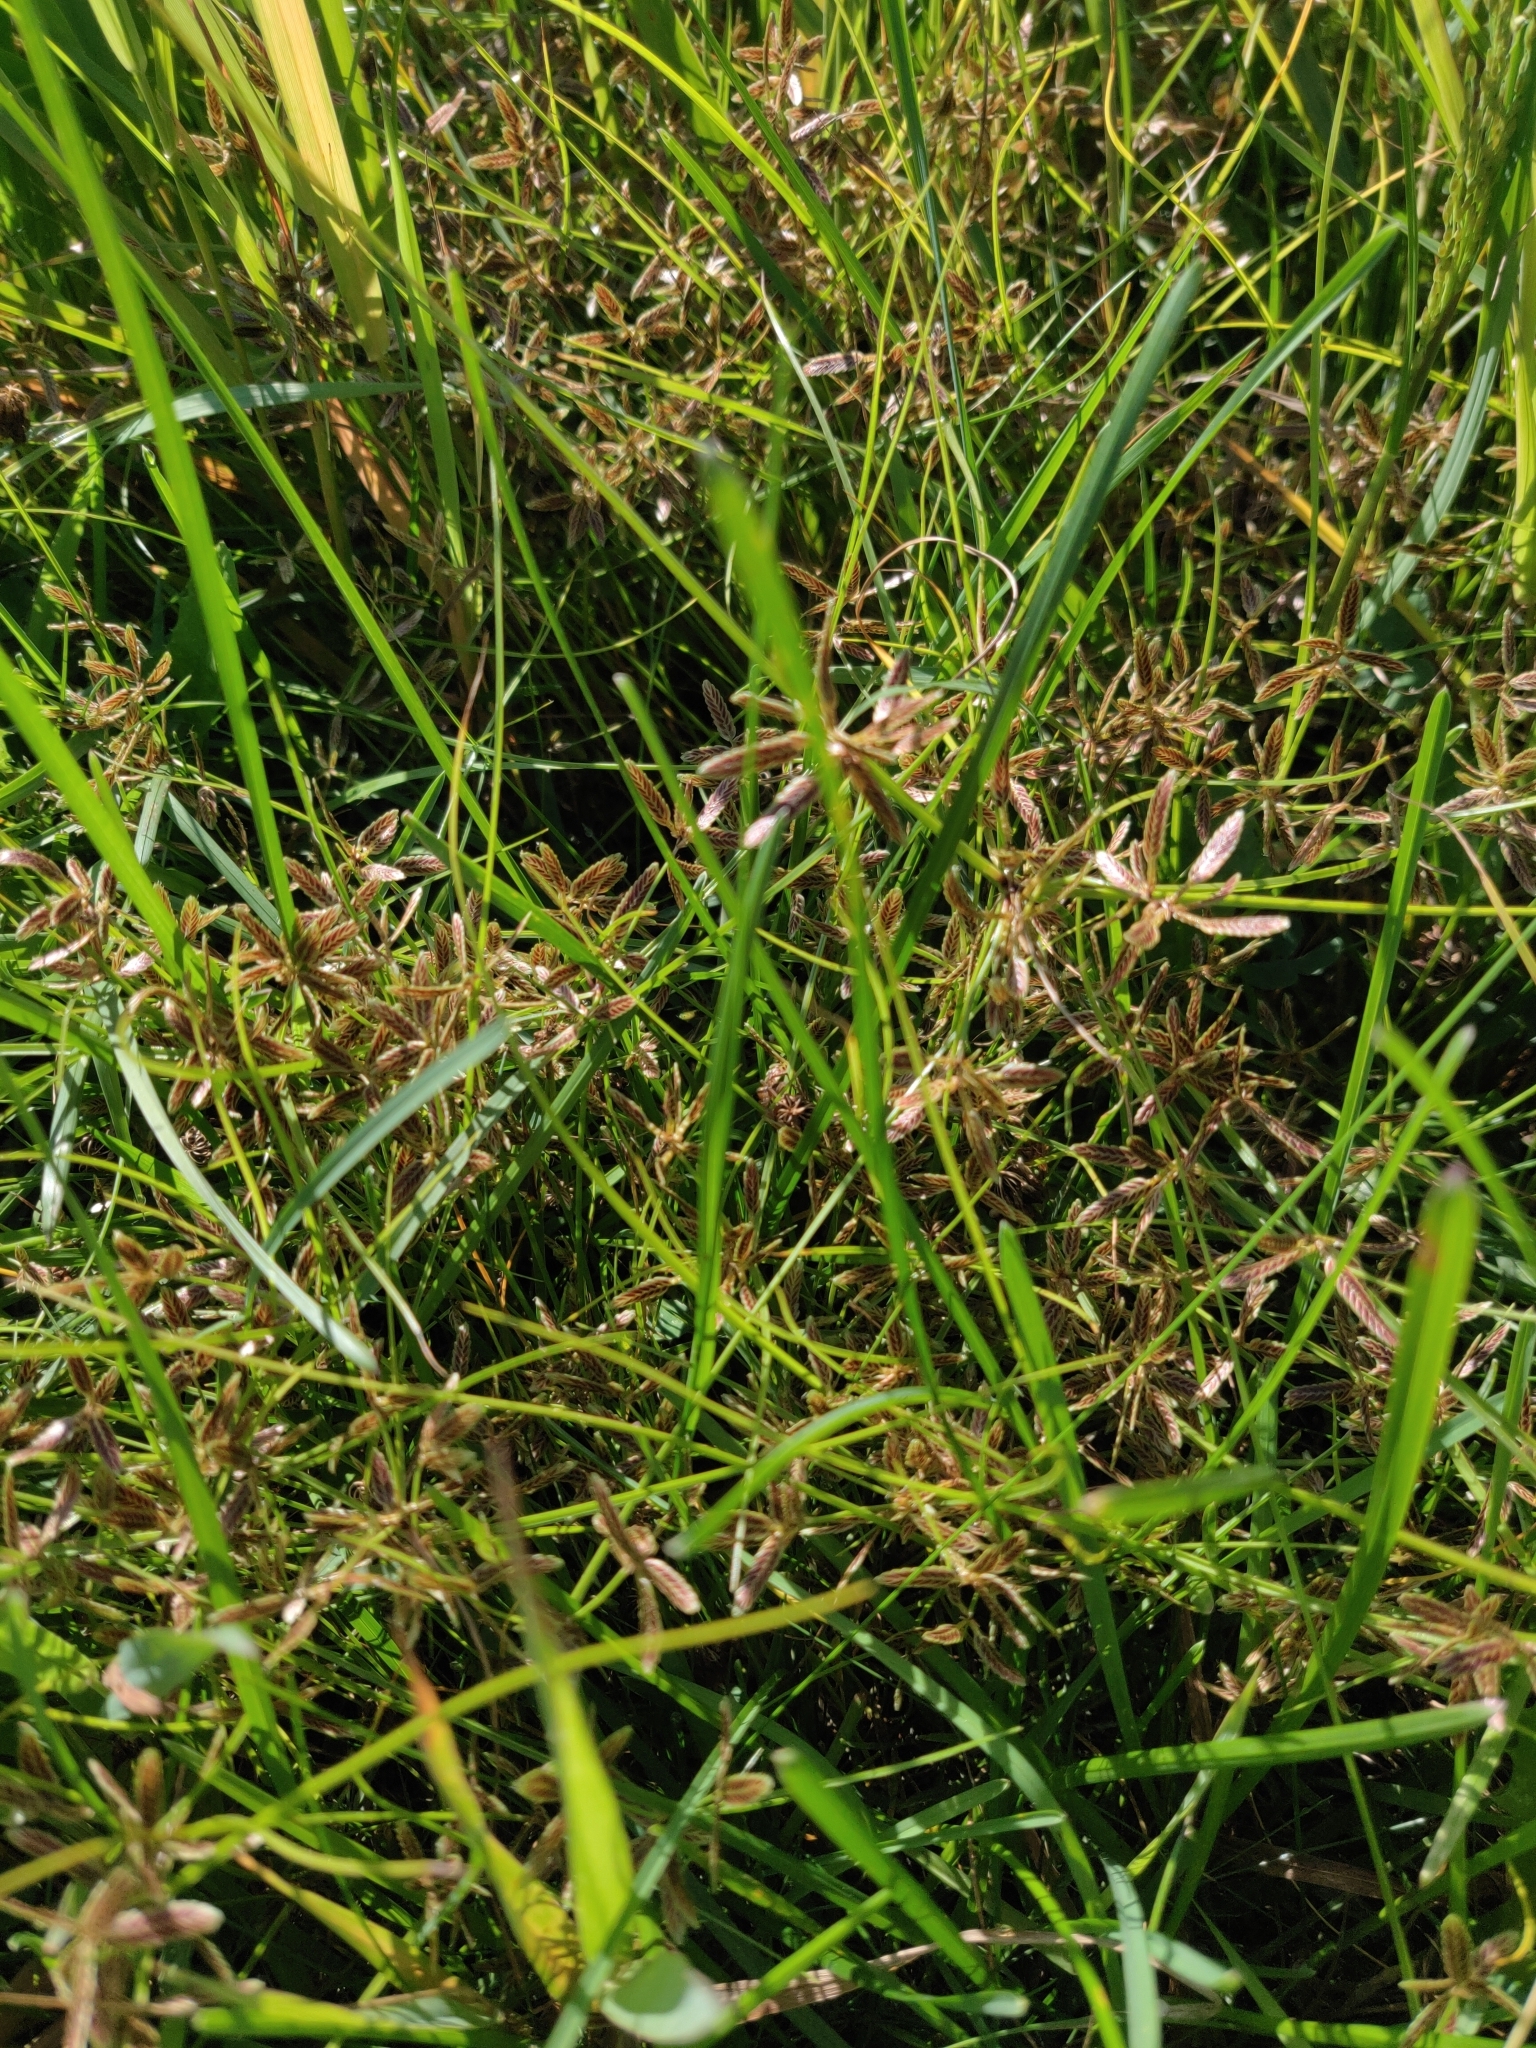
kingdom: Plantae
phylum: Tracheophyta
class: Liliopsida
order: Poales
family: Cyperaceae
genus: Cyperus
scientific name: Cyperus bipartitus
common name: Brook flatsedge
